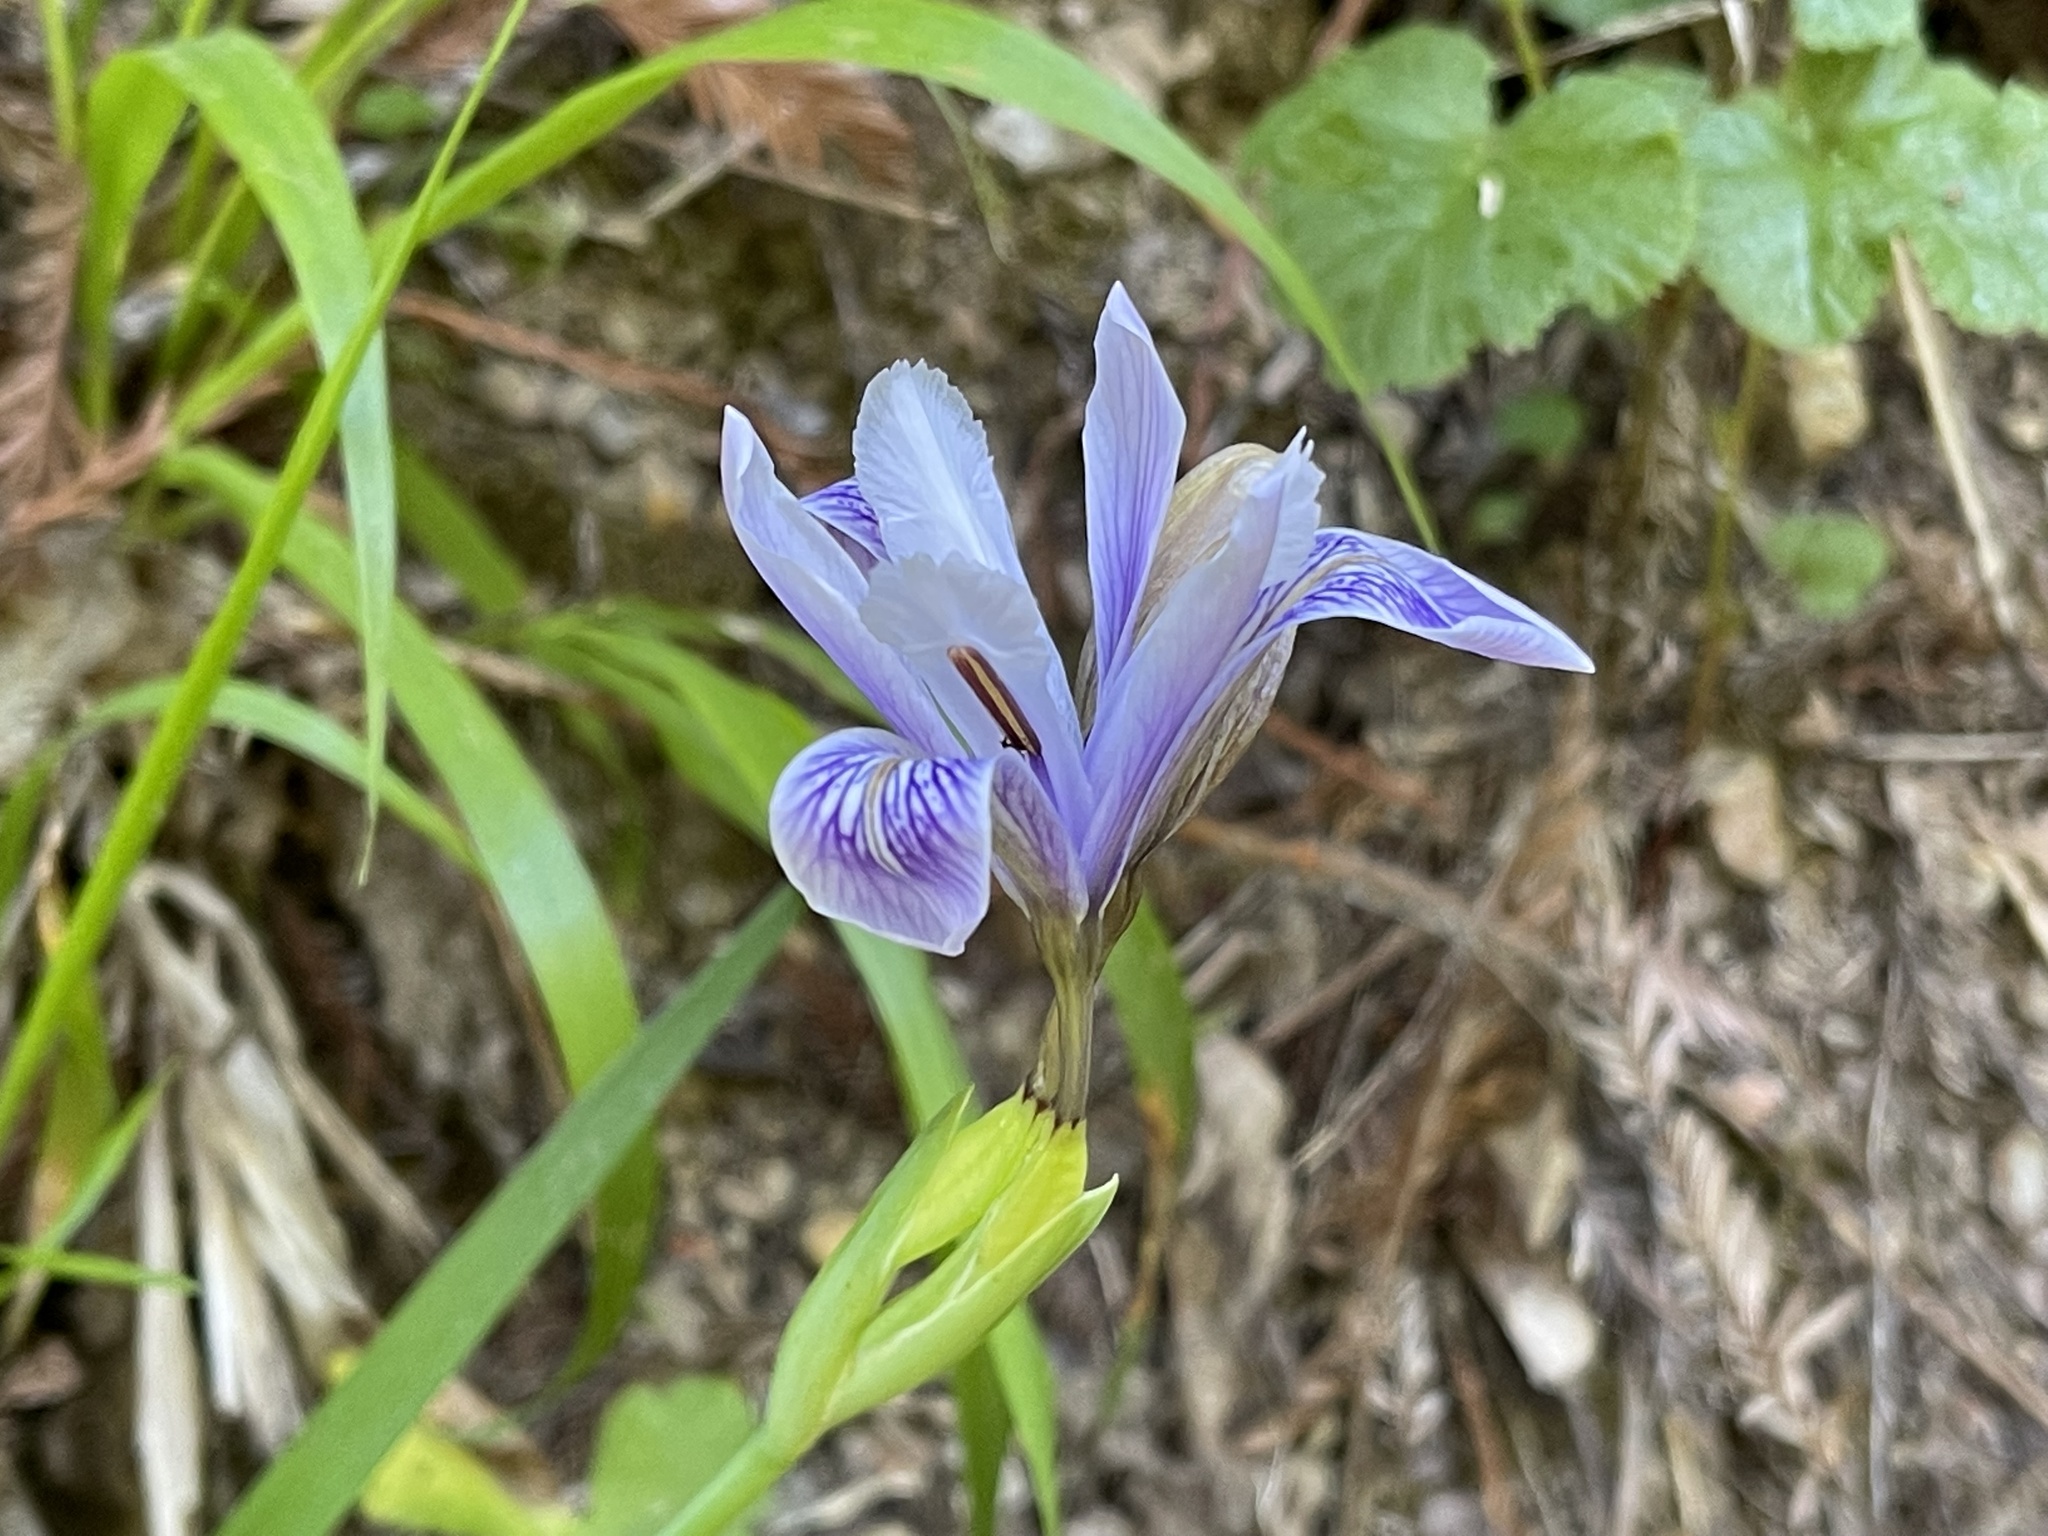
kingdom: Plantae
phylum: Tracheophyta
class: Liliopsida
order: Asparagales
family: Iridaceae
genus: Iris
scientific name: Iris douglasiana
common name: Marin iris
